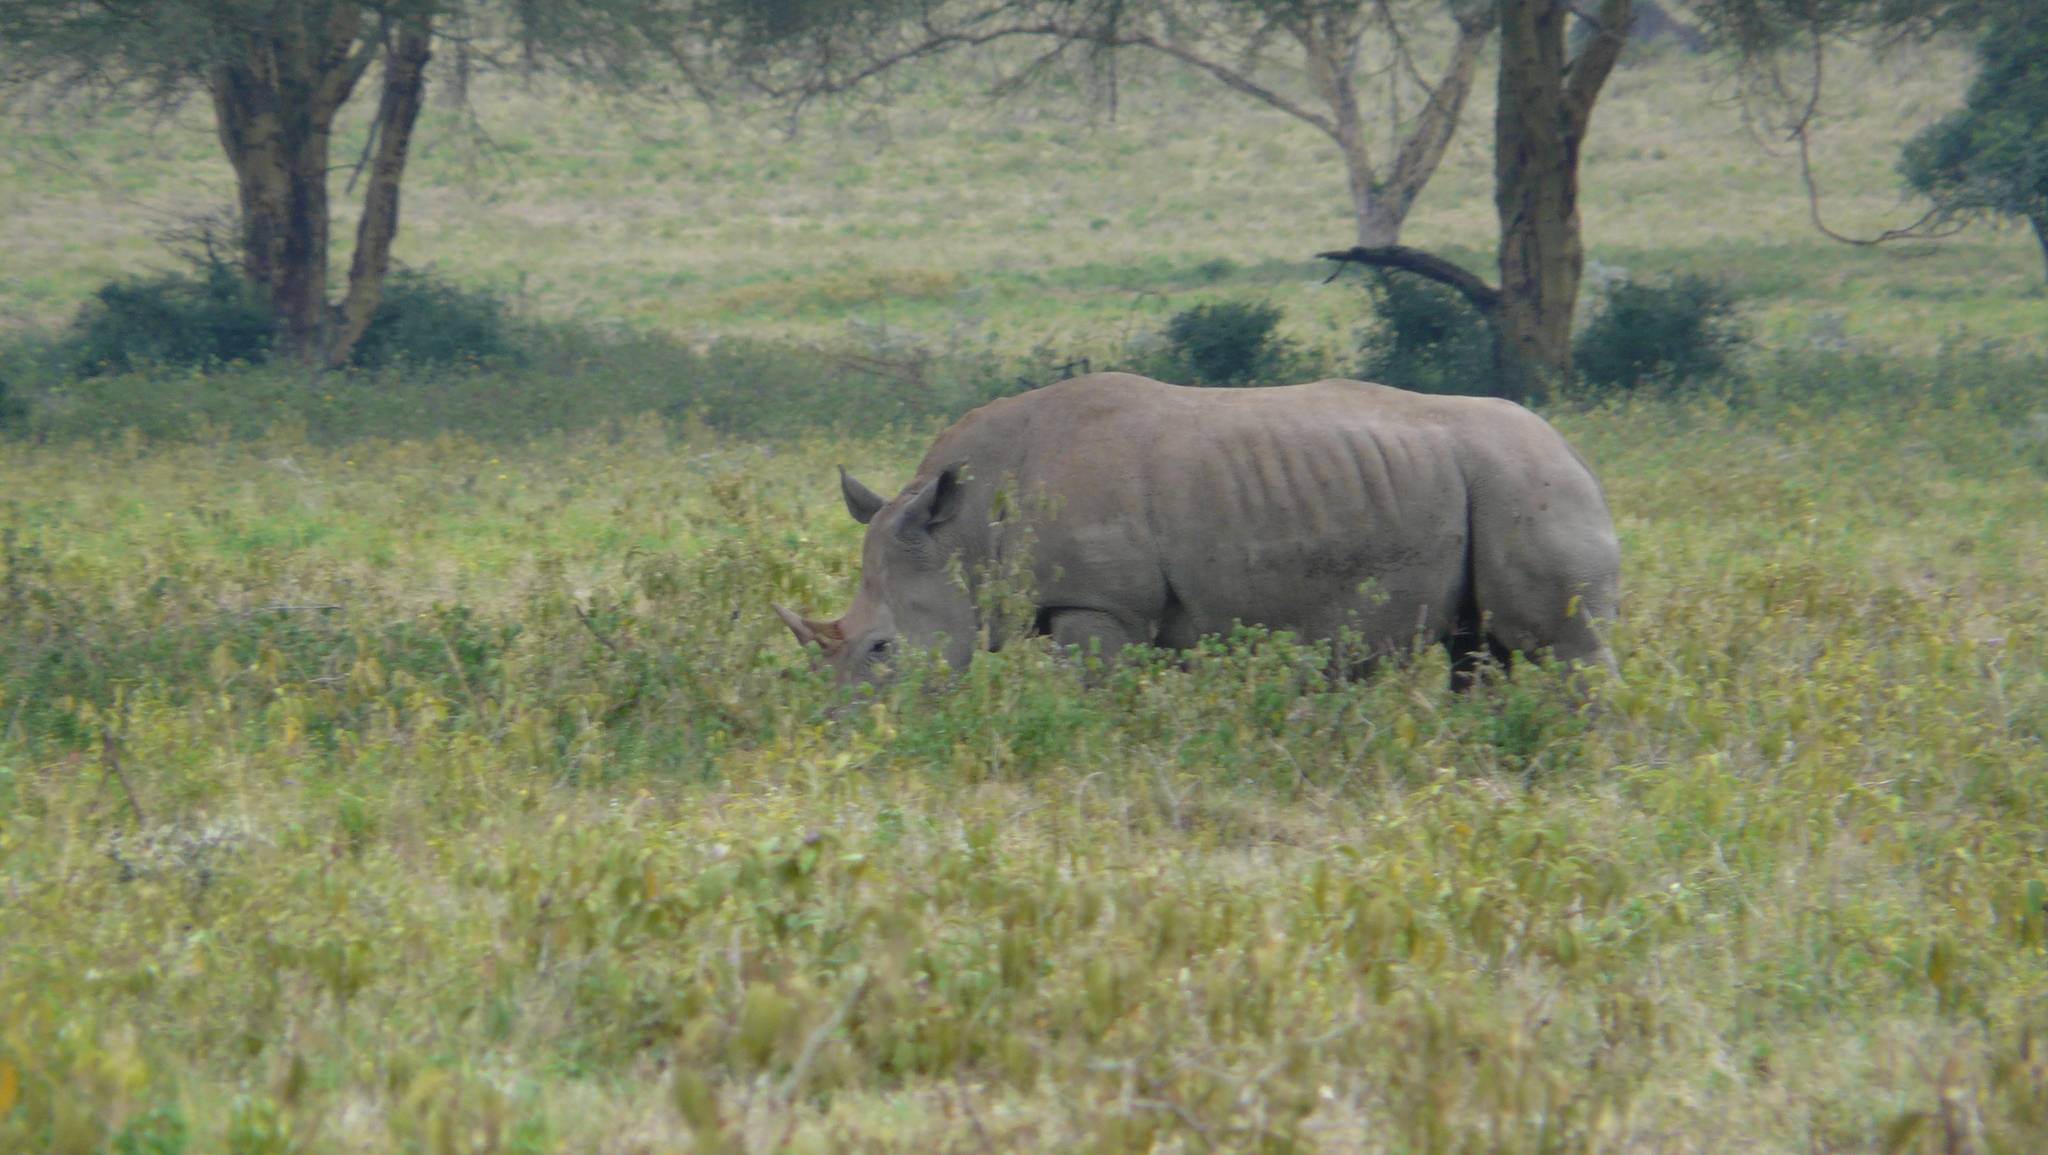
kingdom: Animalia
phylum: Chordata
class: Mammalia
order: Perissodactyla
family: Rhinocerotidae
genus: Ceratotherium
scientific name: Ceratotherium simum
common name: White rhinoceros
